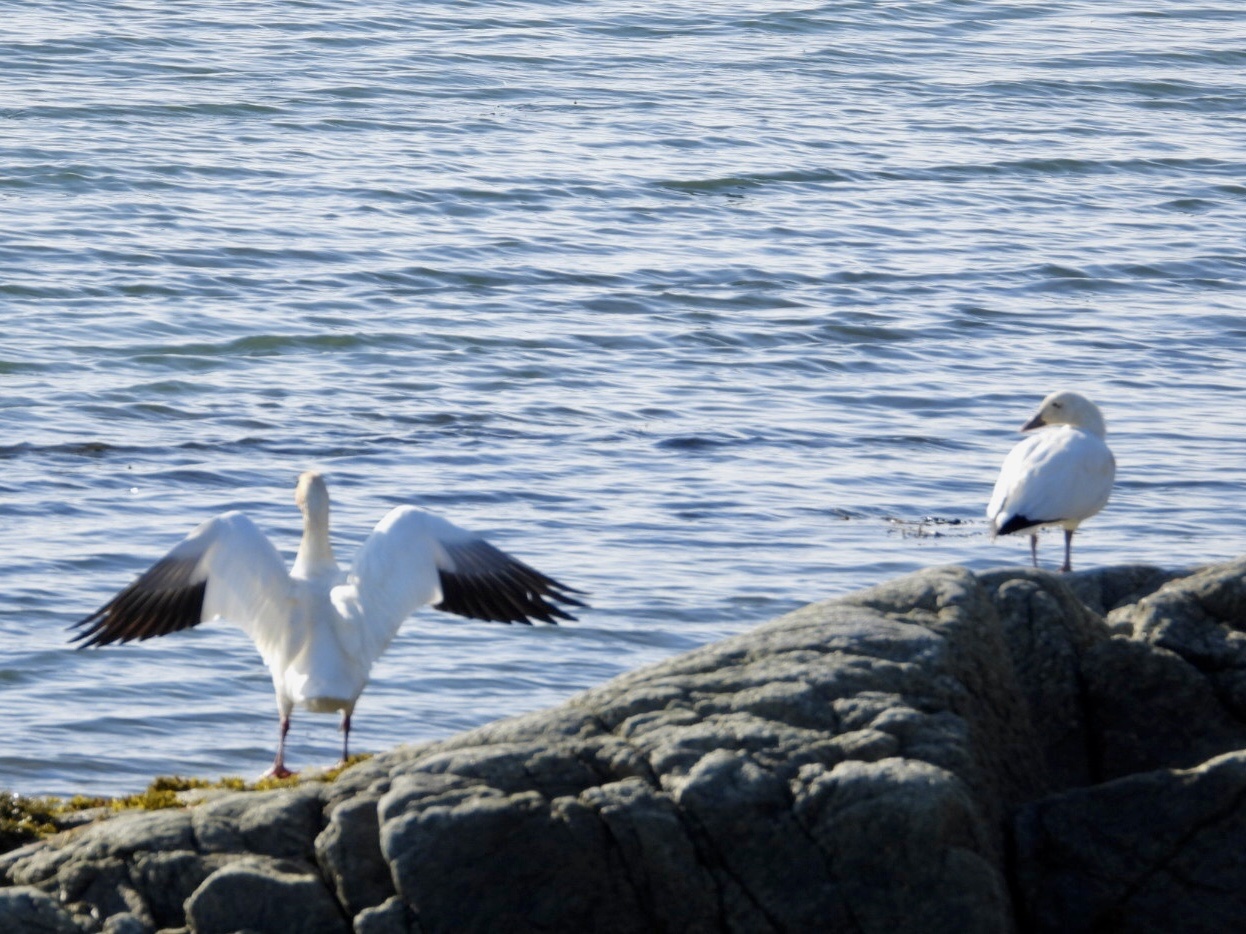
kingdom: Animalia
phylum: Chordata
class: Aves
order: Anseriformes
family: Anatidae
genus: Anser
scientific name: Anser caerulescens
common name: Snow goose
